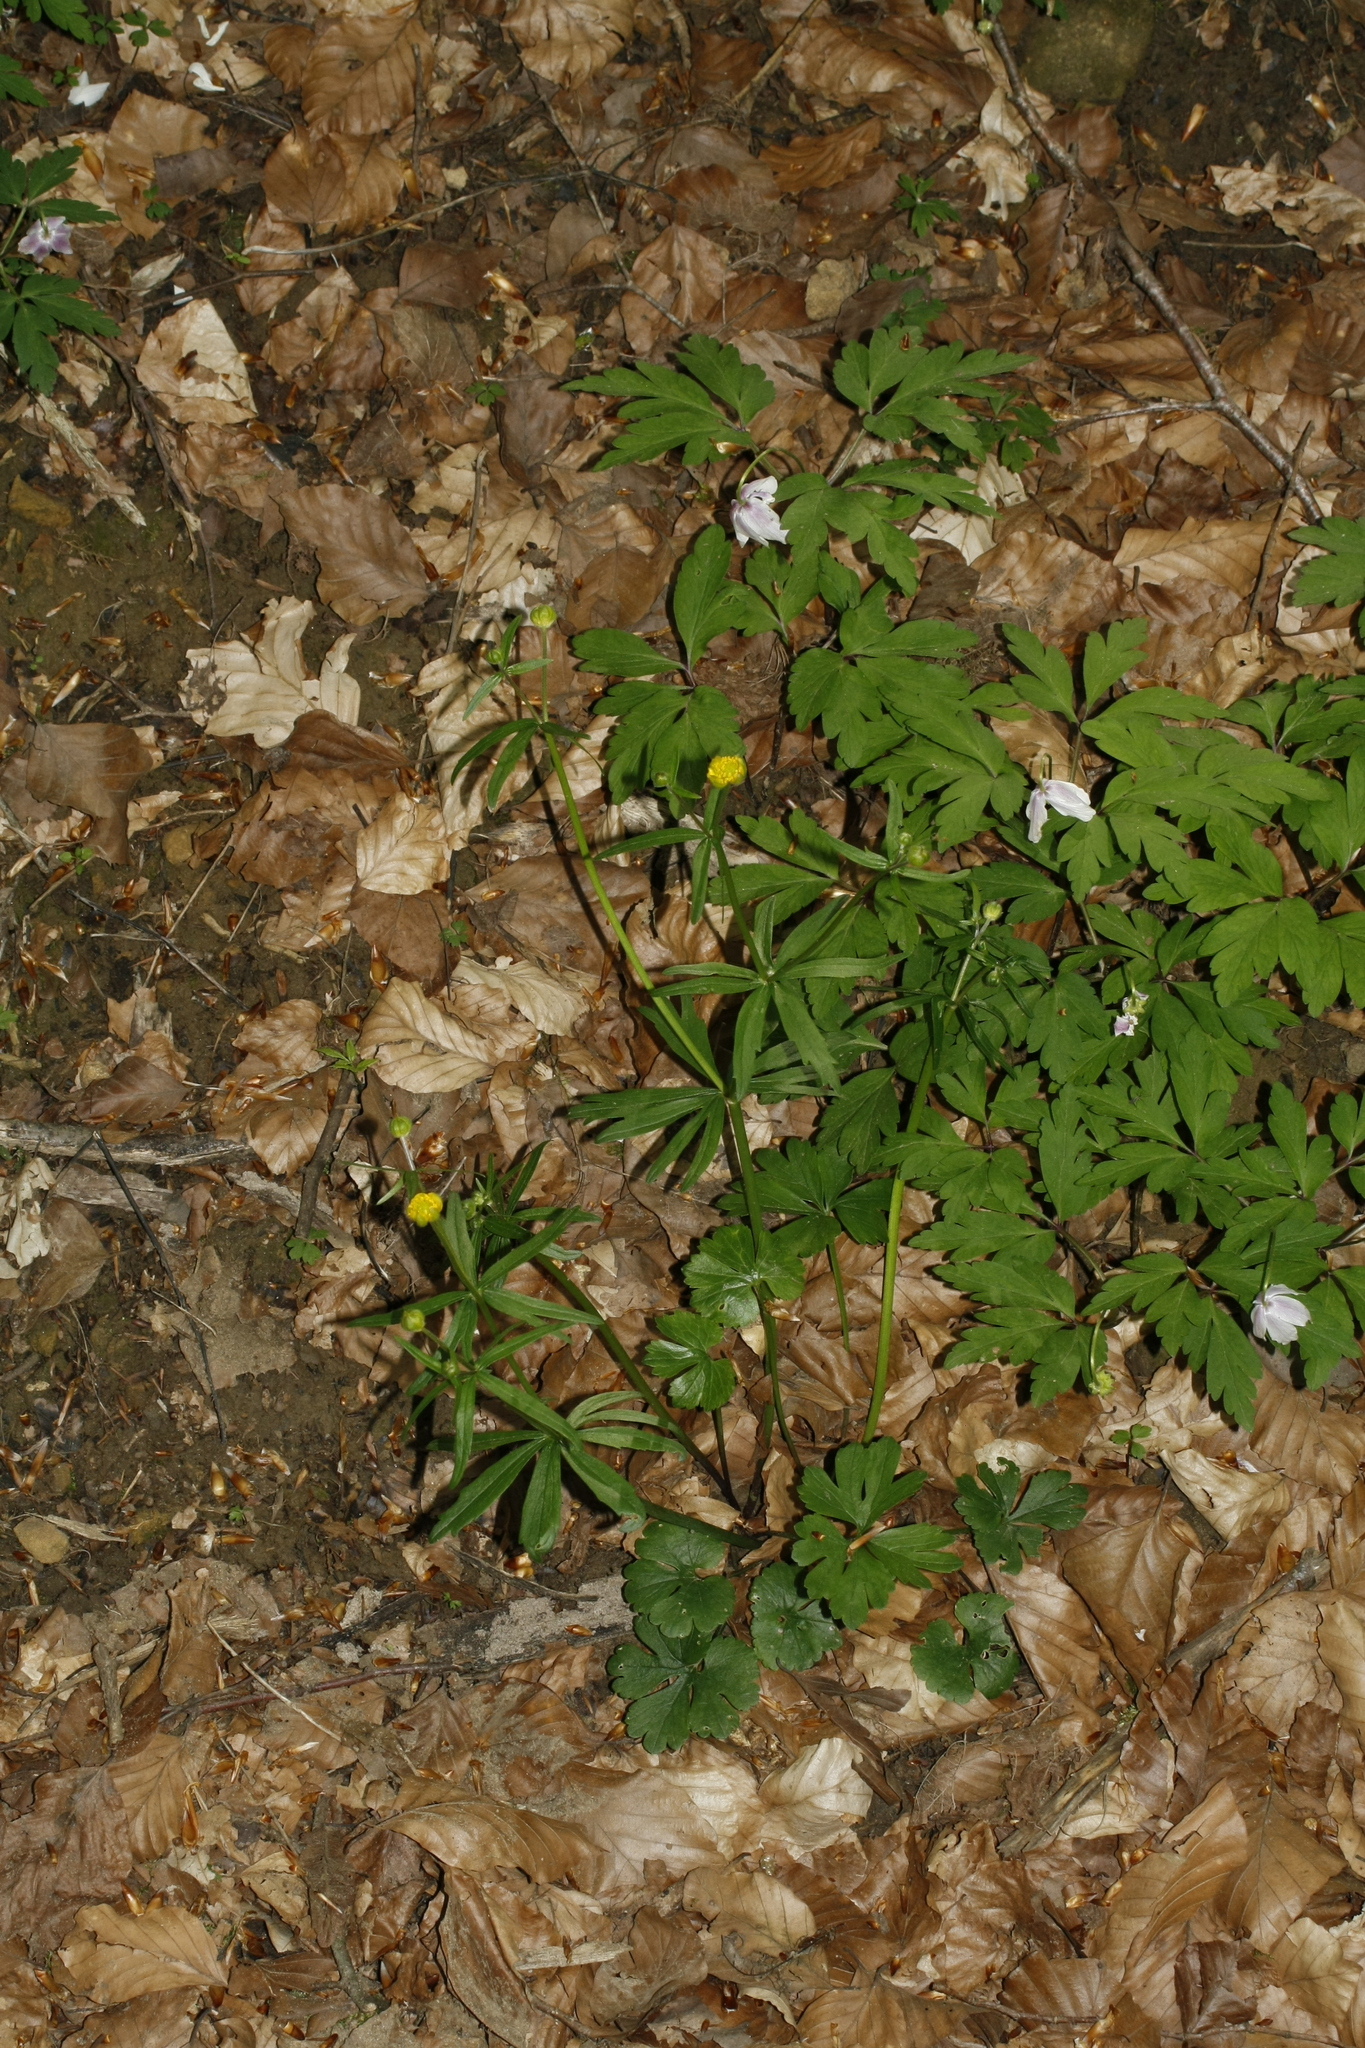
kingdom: Plantae
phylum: Tracheophyta
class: Magnoliopsida
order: Ranunculales
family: Ranunculaceae
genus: Ranunculus
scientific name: Ranunculus auricomus
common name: Goldilocks buttercup
